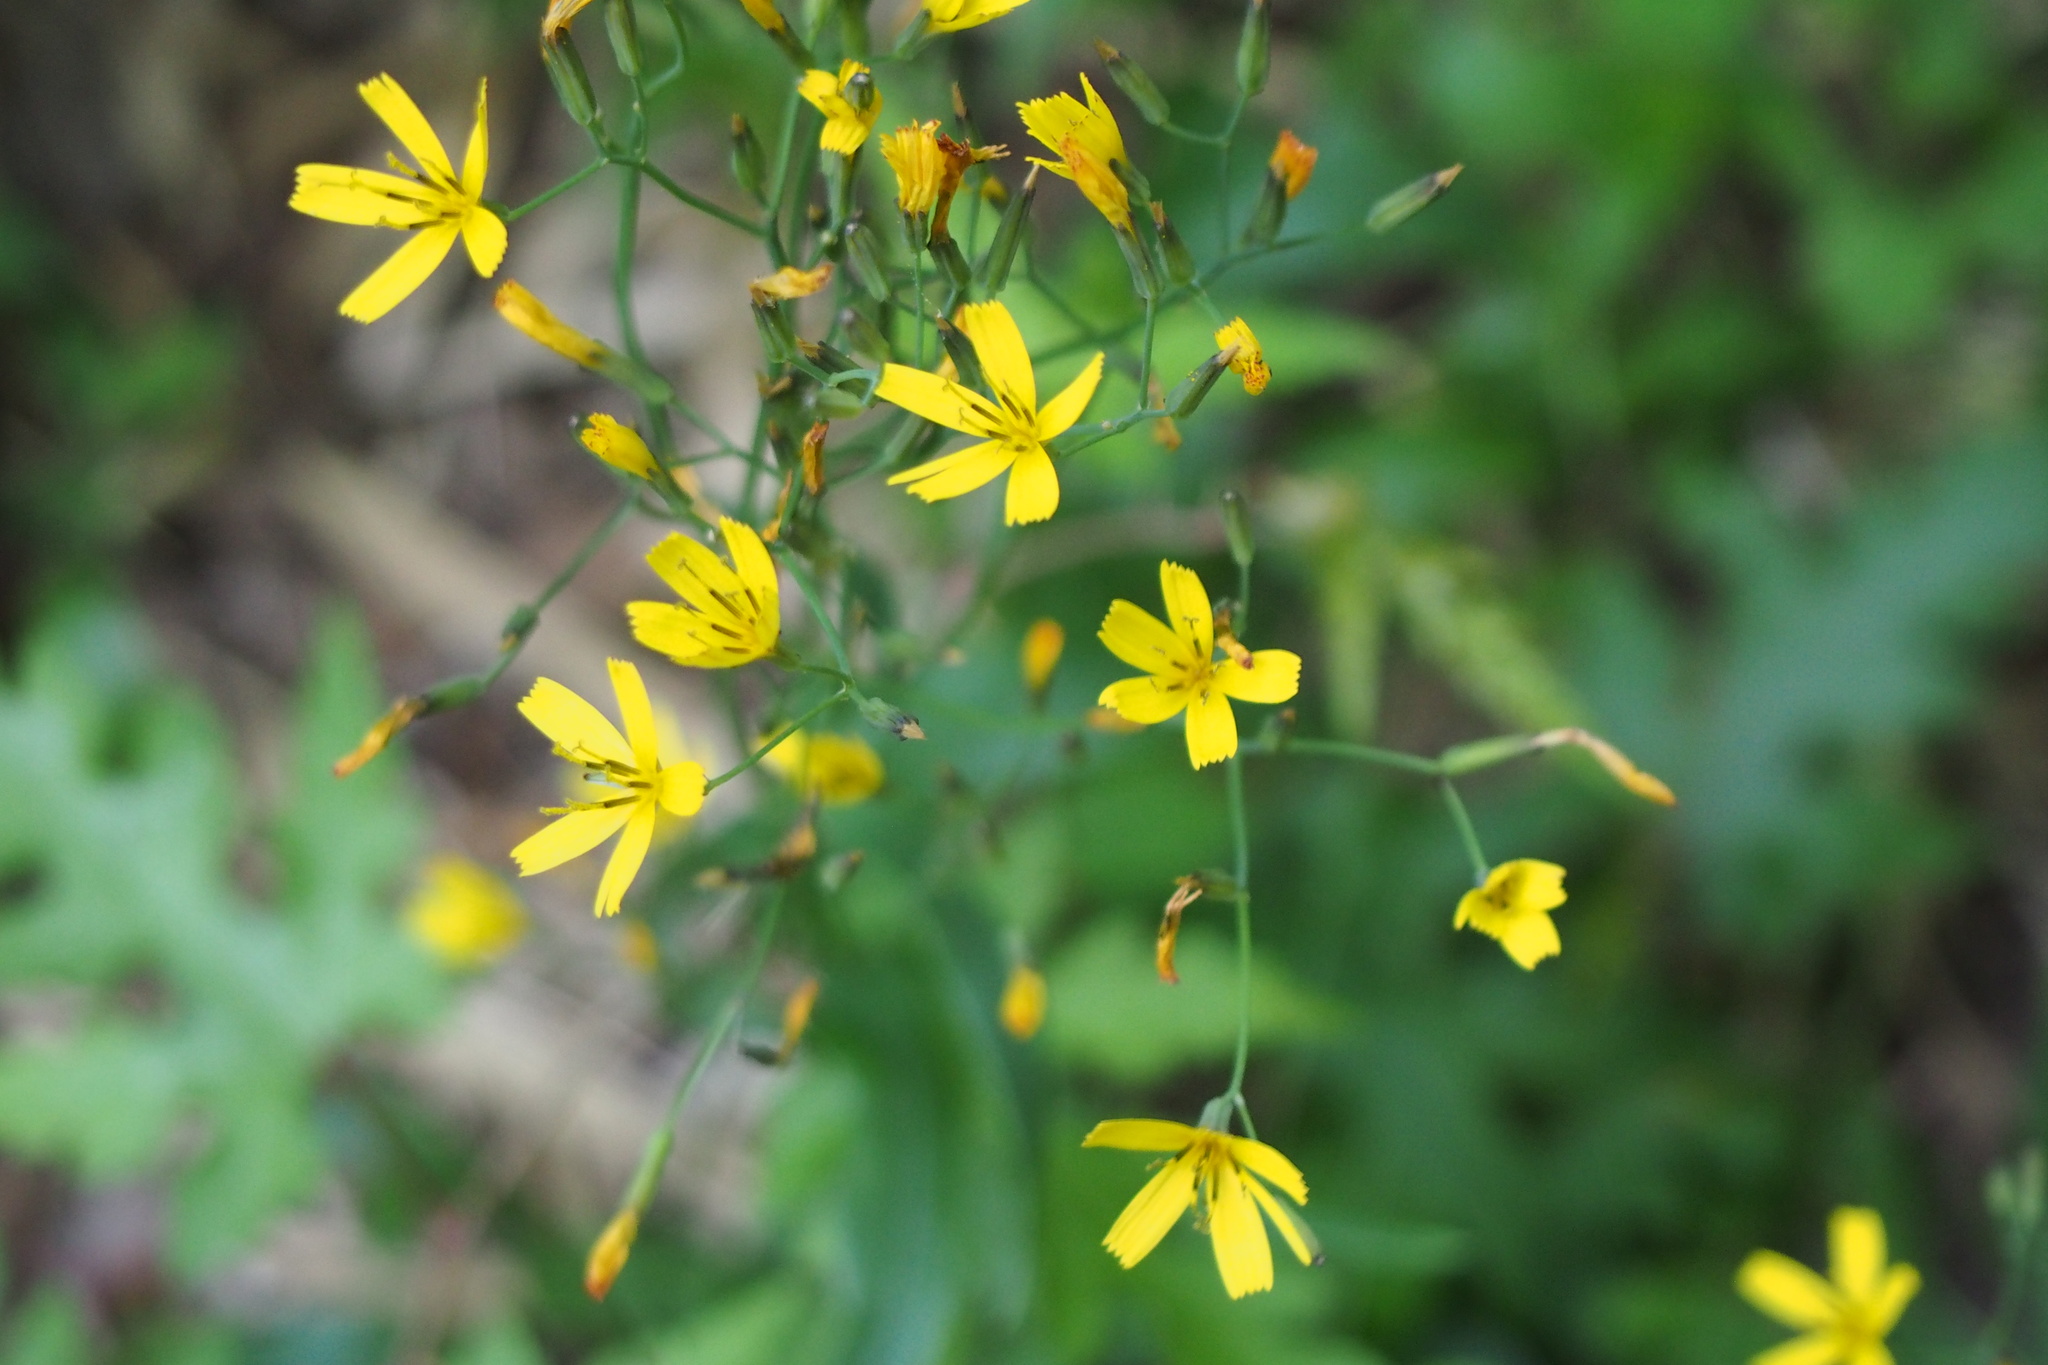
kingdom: Plantae
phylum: Tracheophyta
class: Magnoliopsida
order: Asterales
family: Asteraceae
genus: Ixeridium
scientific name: Ixeridium dentatum
